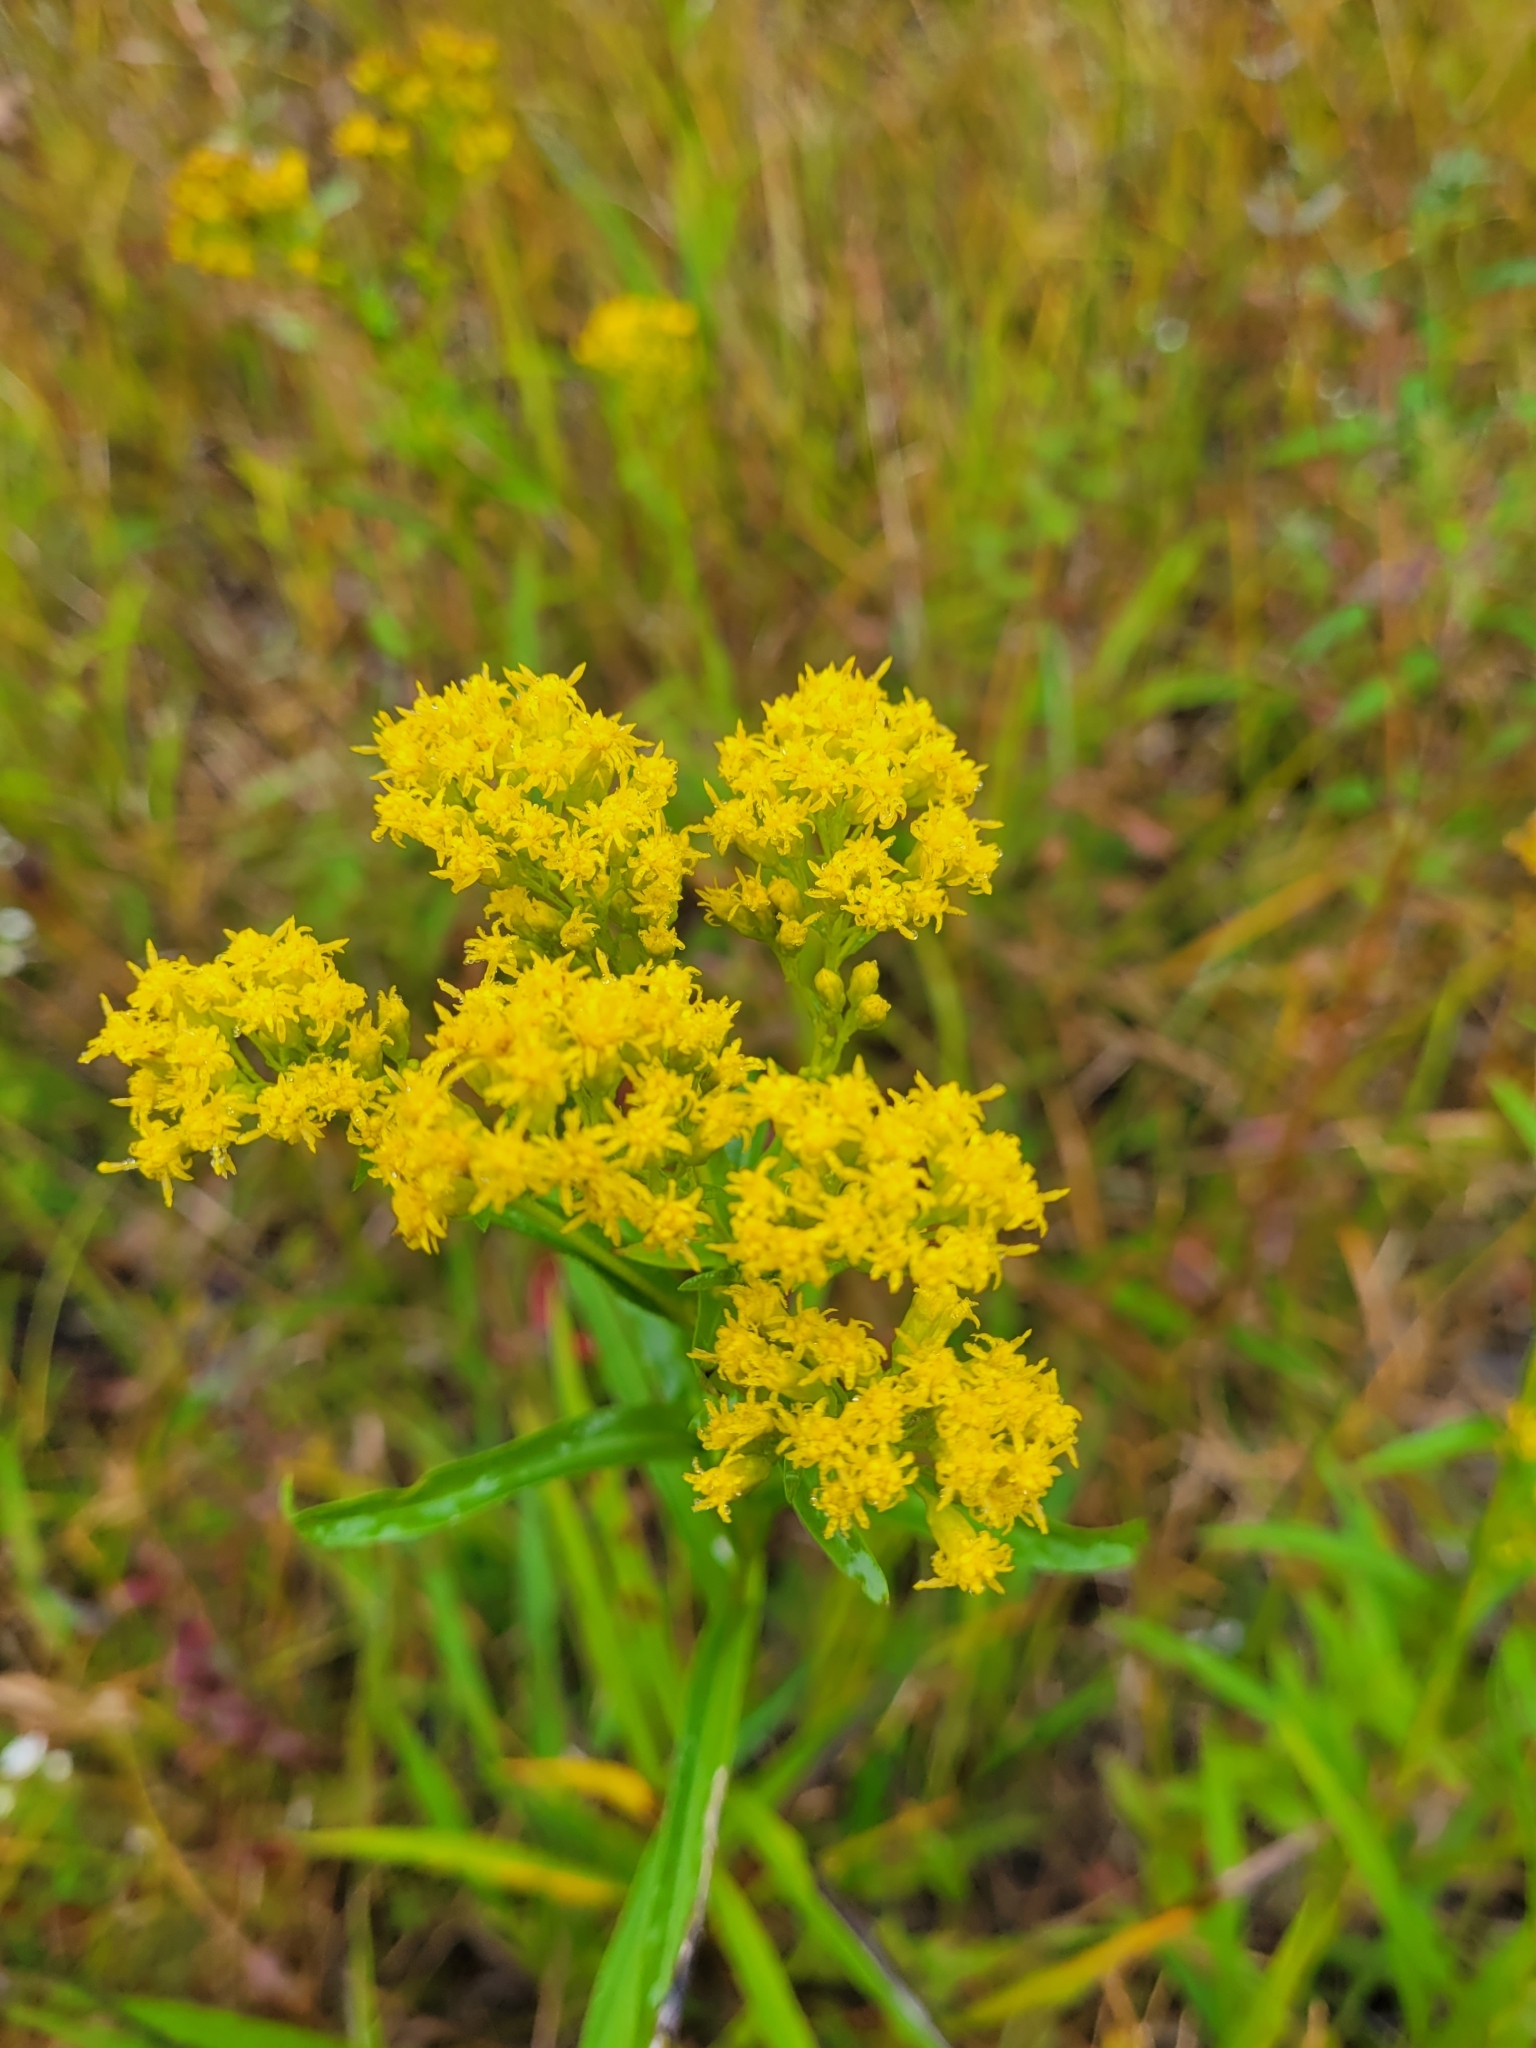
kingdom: Plantae
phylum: Tracheophyta
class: Magnoliopsida
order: Asterales
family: Asteraceae
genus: Solidago
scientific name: Solidago riddellii
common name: Riddell's goldenrod
